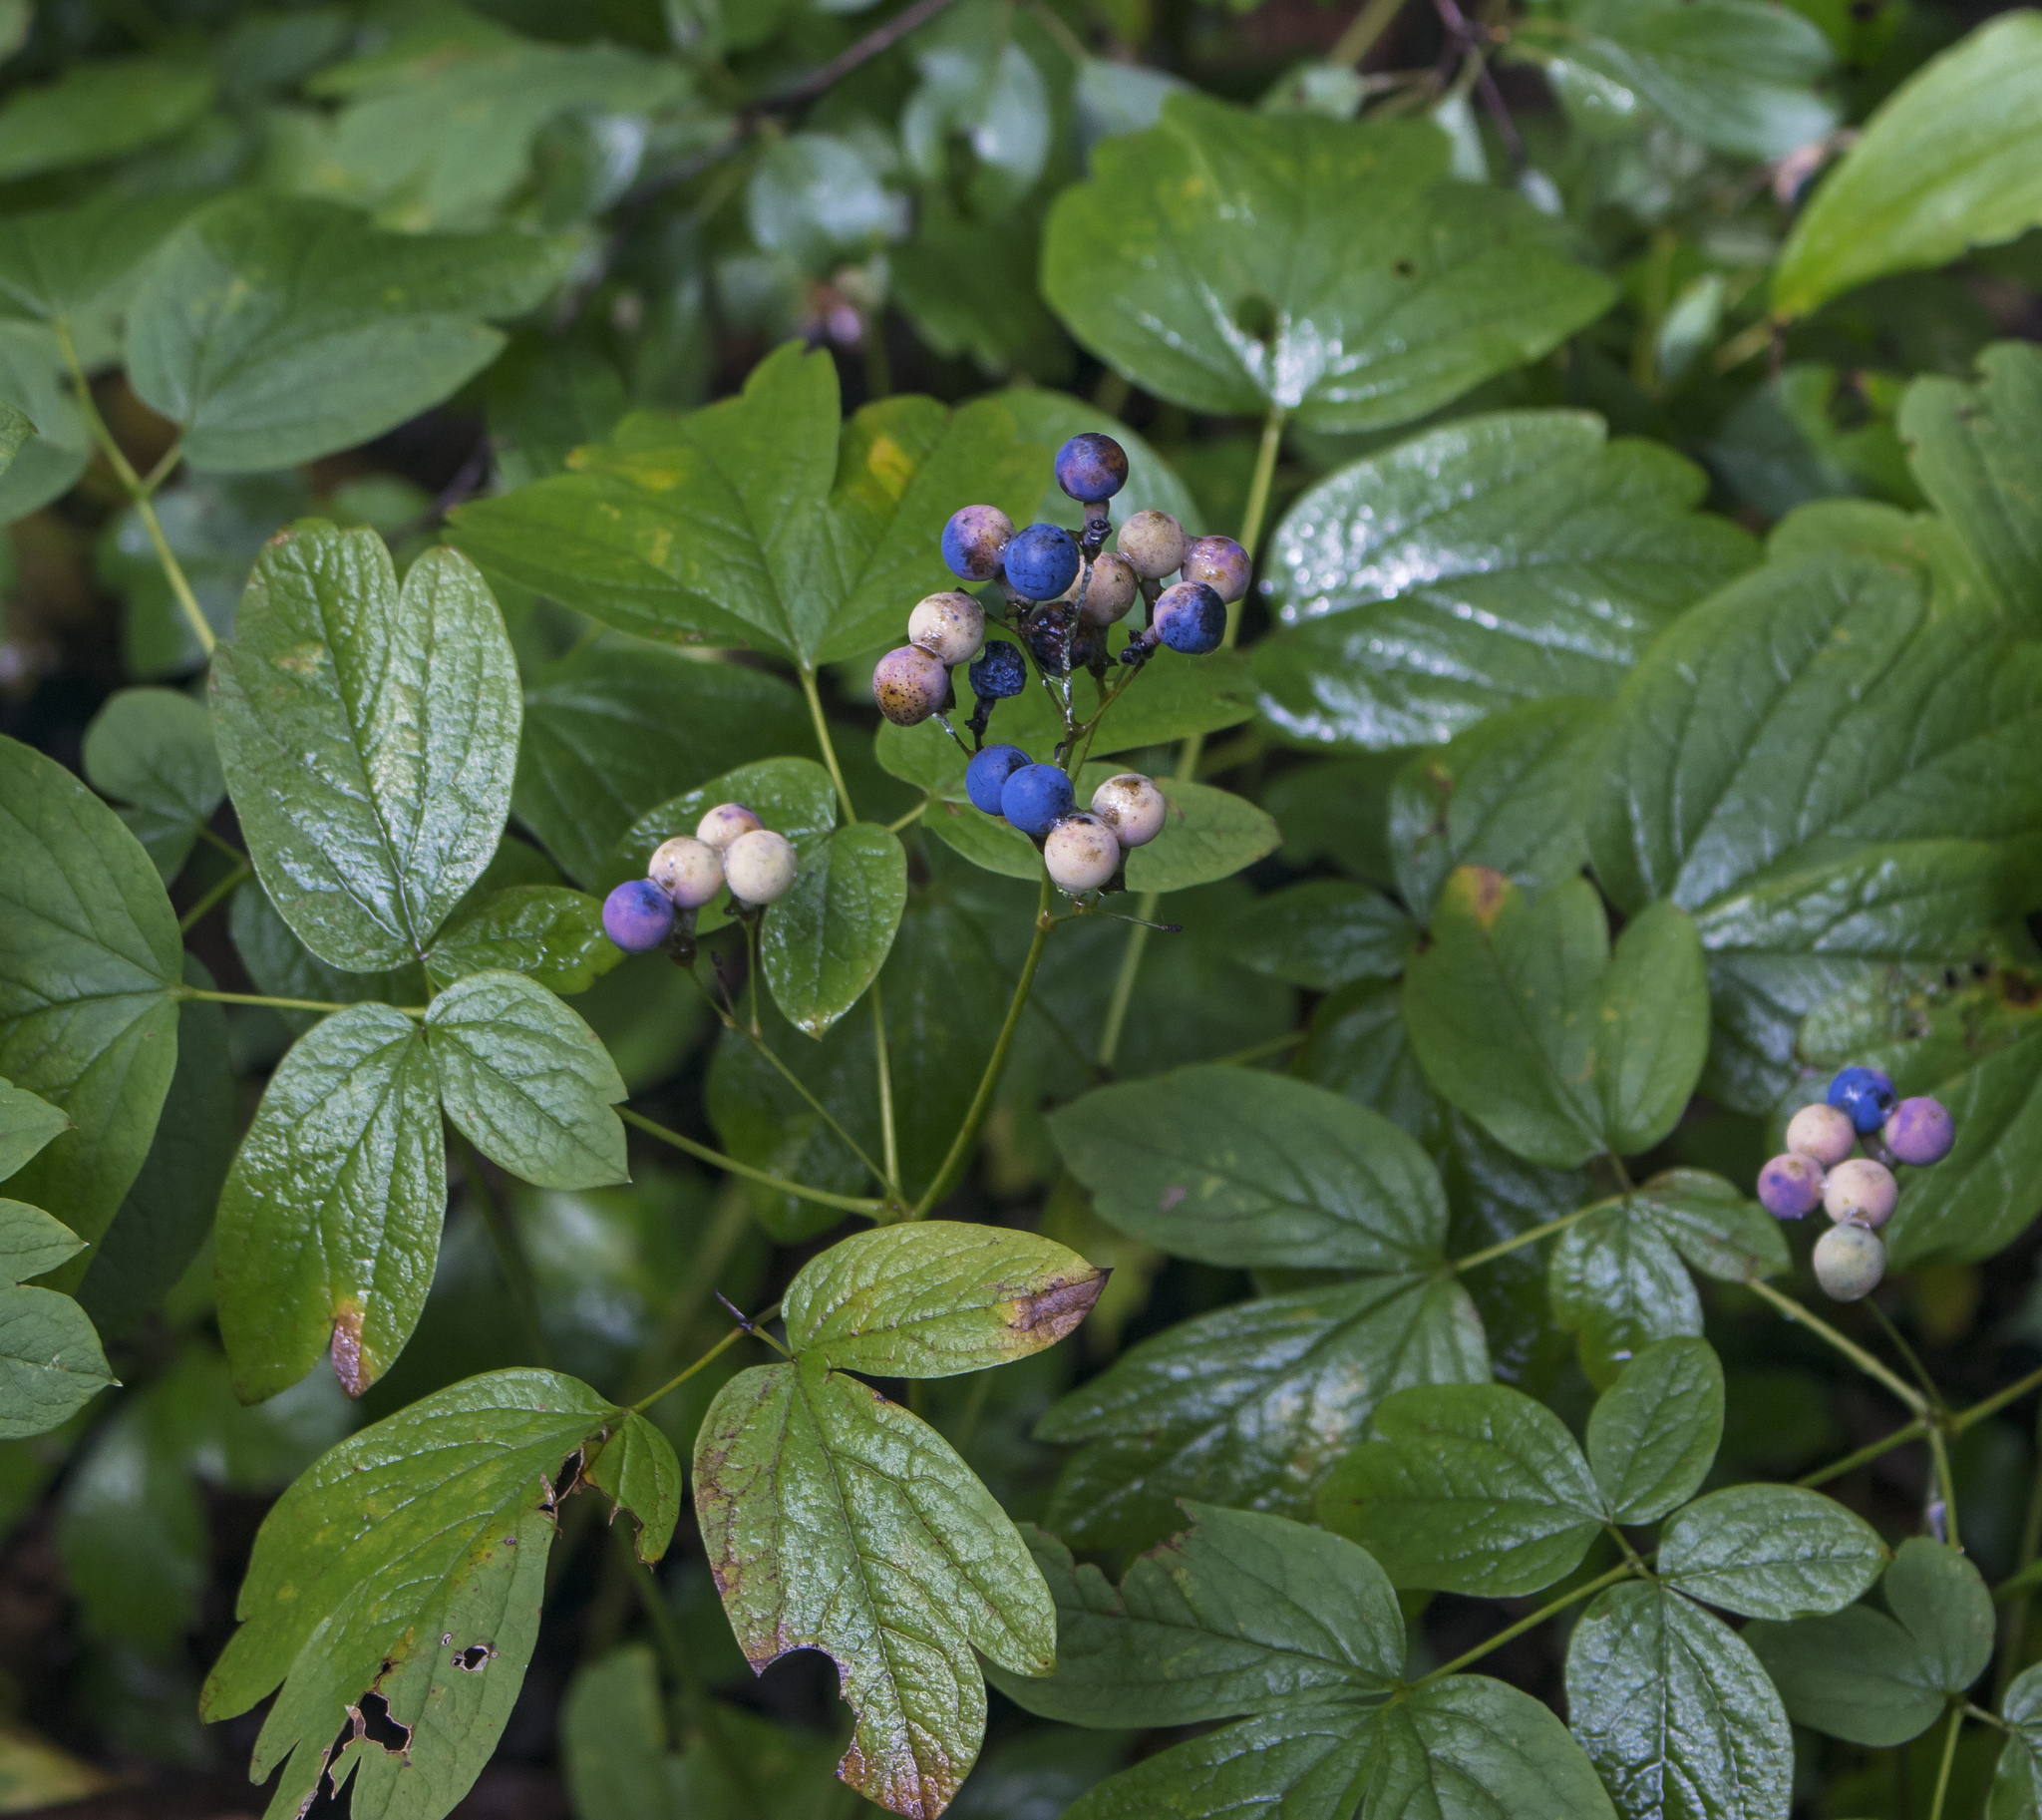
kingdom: Plantae
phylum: Tracheophyta
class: Magnoliopsida
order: Ranunculales
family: Berberidaceae
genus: Caulophyllum
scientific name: Caulophyllum thalictroides
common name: Blue cohosh
